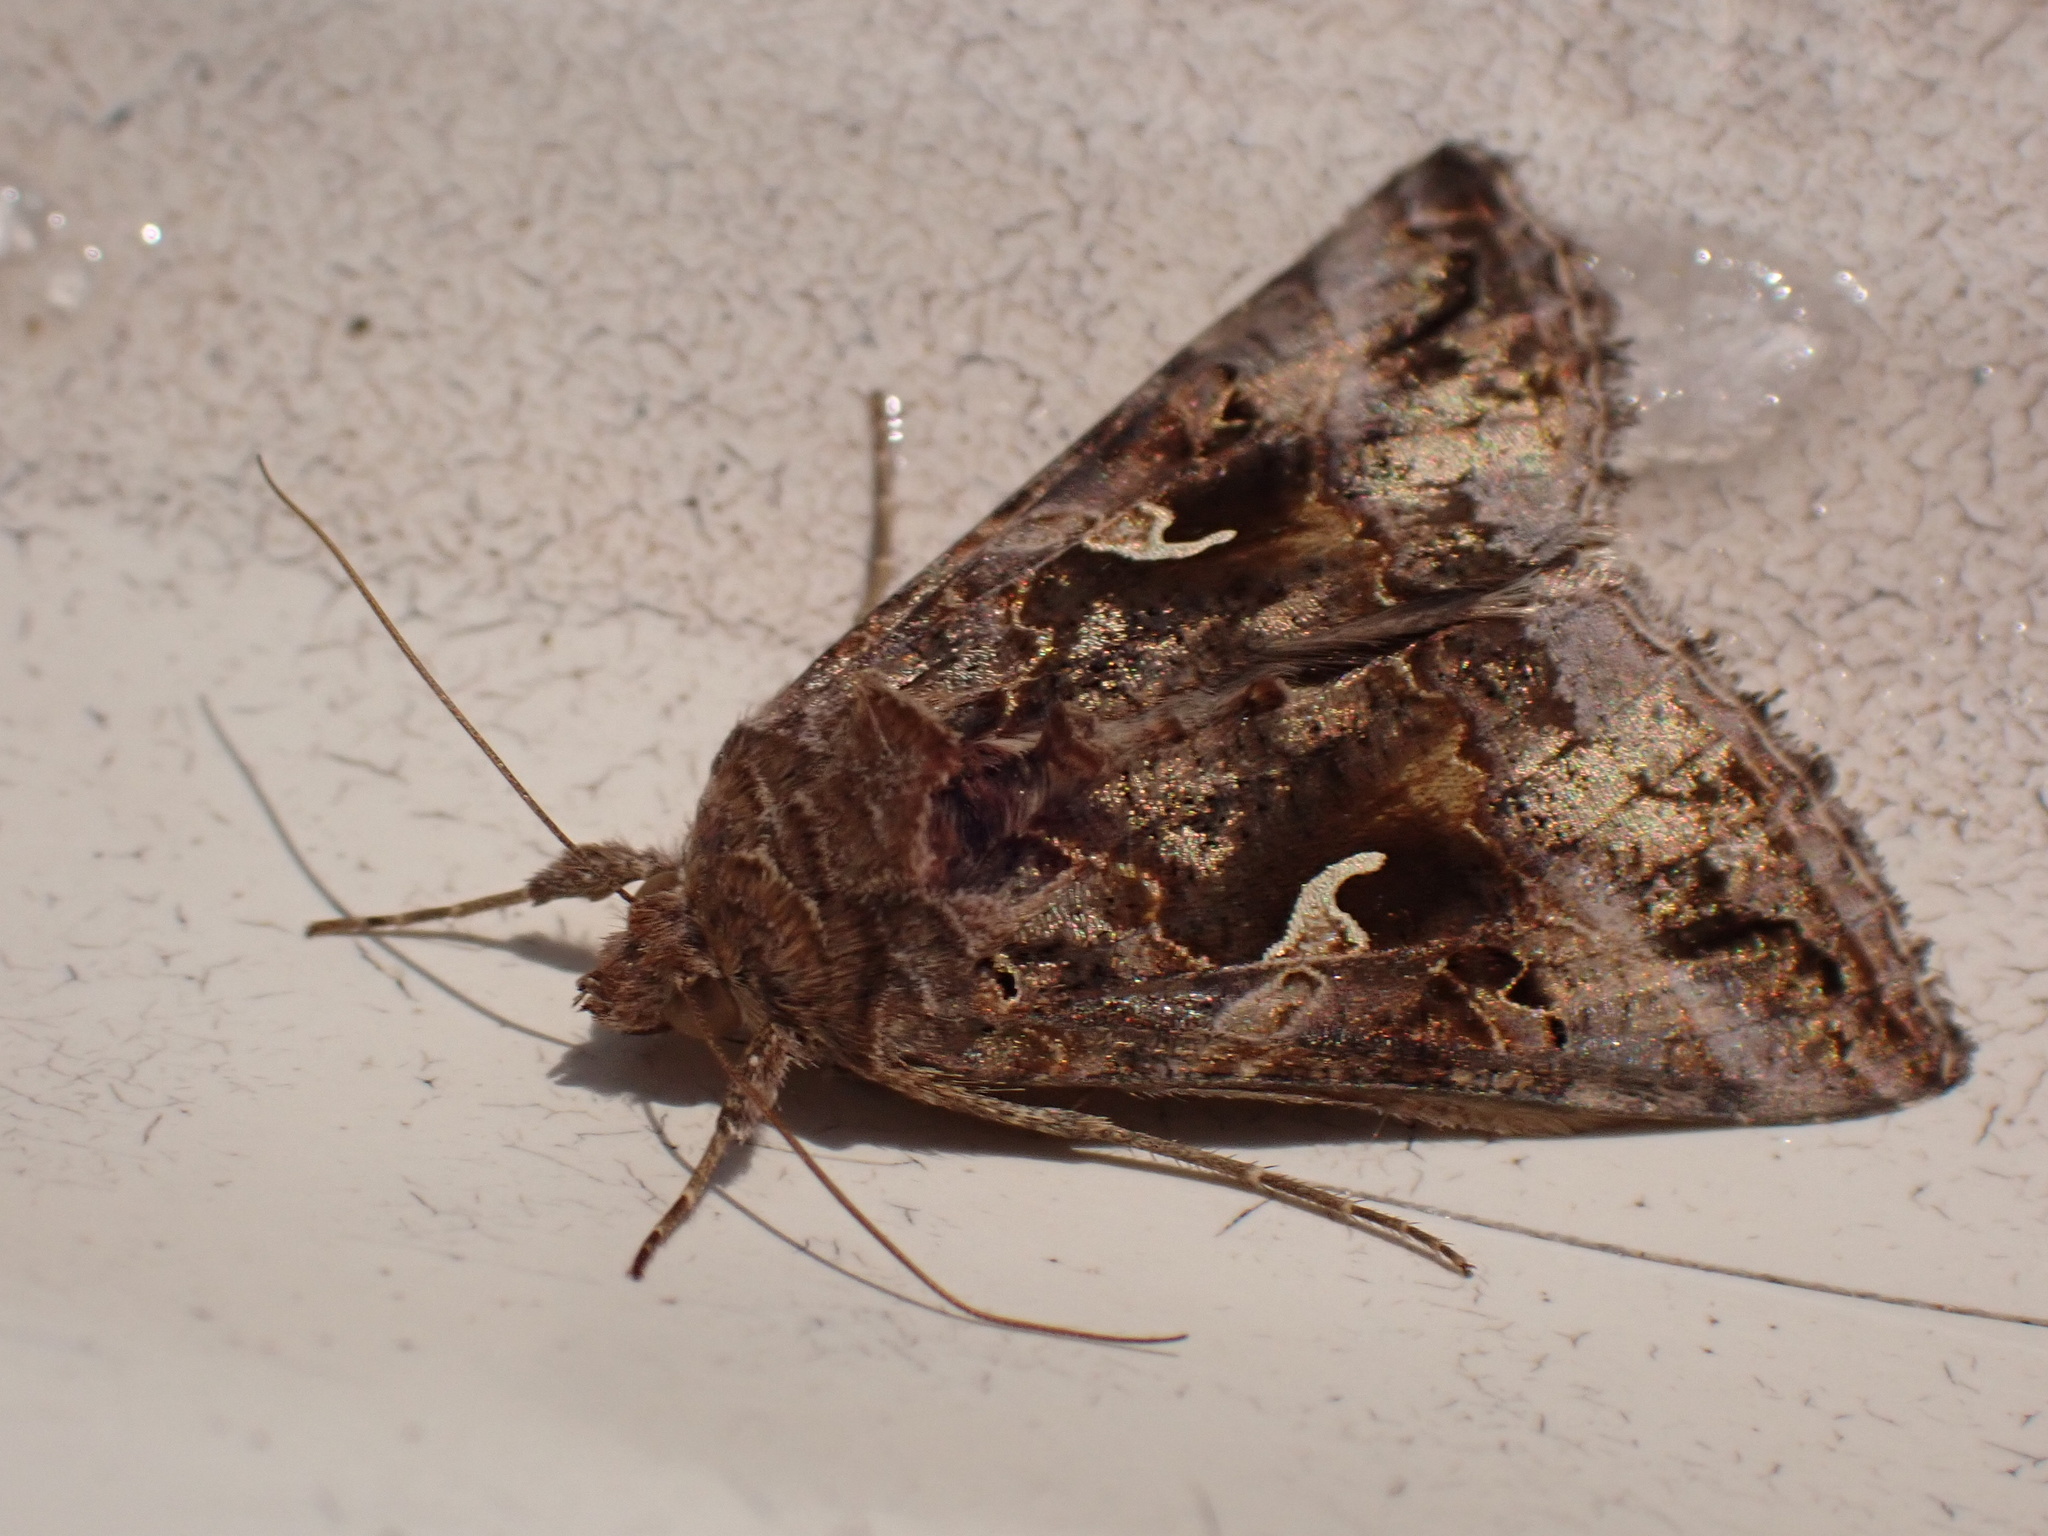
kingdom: Animalia
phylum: Arthropoda
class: Insecta
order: Lepidoptera
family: Noctuidae
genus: Autographa
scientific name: Autographa gamma
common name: Silver y
